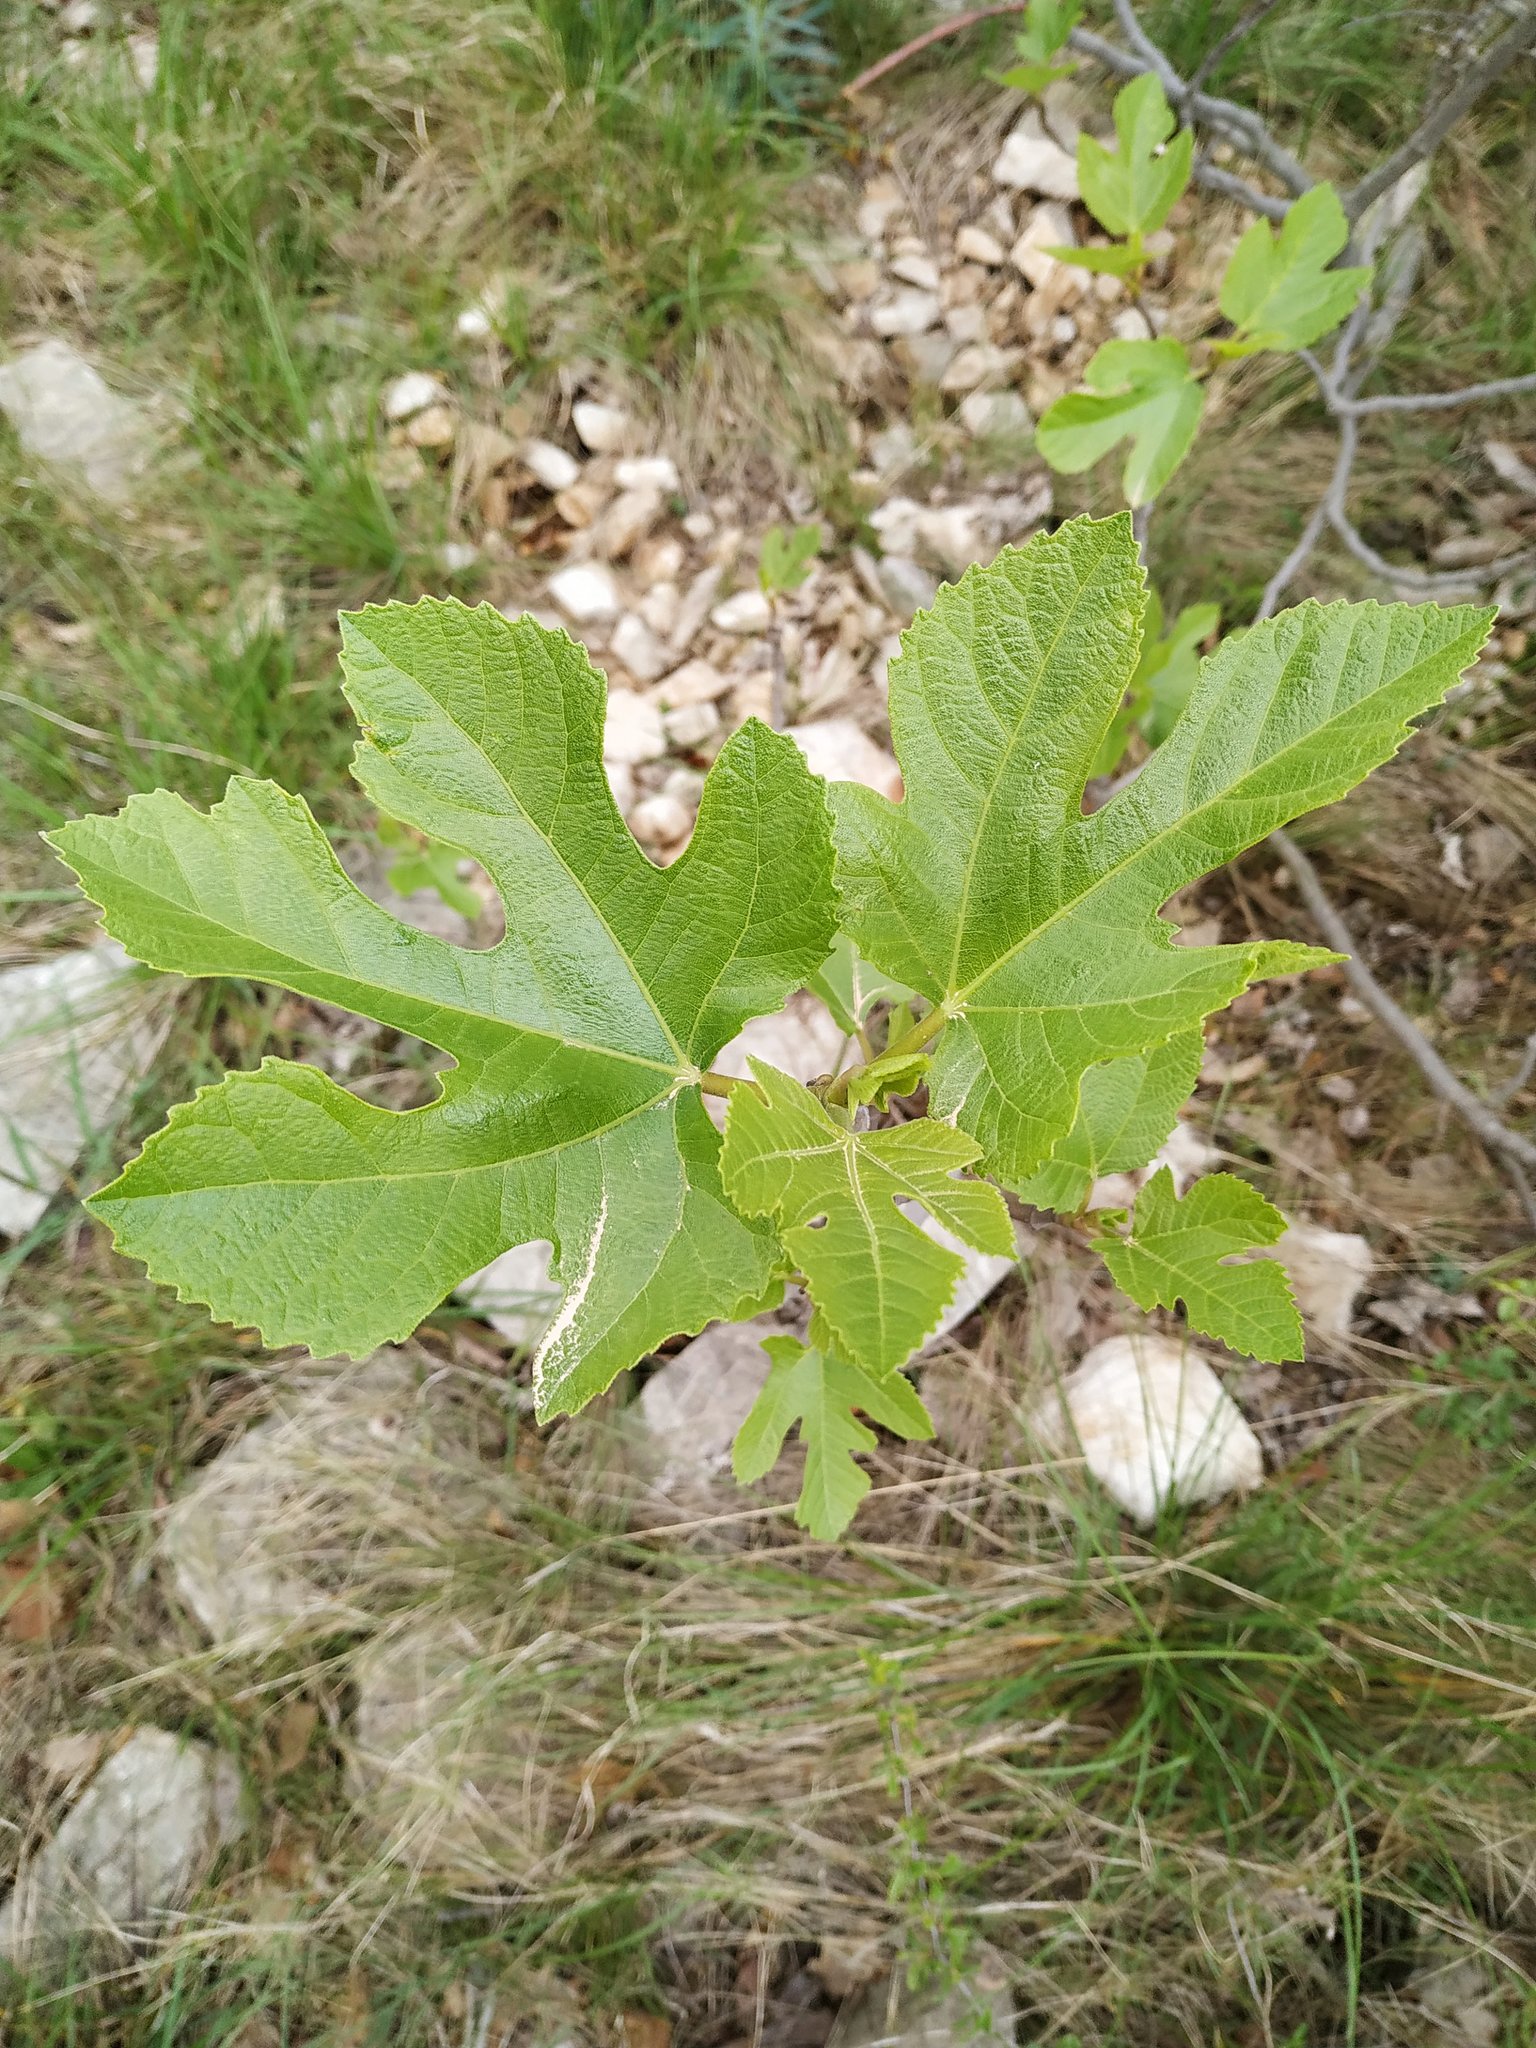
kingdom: Plantae
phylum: Tracheophyta
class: Magnoliopsida
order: Rosales
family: Moraceae
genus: Ficus
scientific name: Ficus carica
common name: Fig
